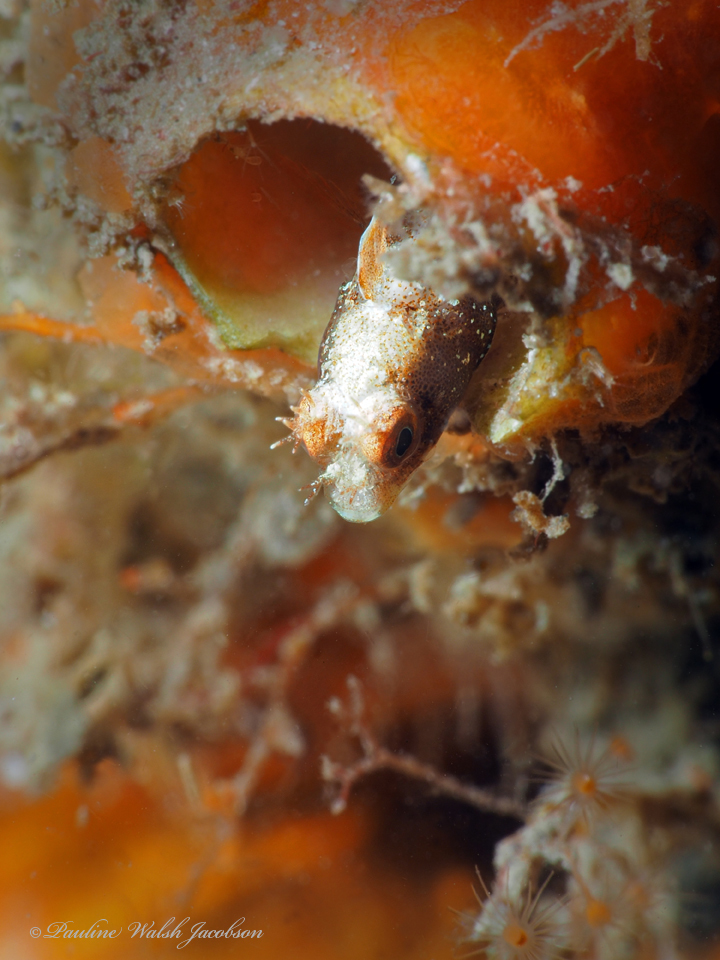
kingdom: Animalia
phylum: Chordata
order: Perciformes
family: Chaenopsidae
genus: Acanthemblemaria
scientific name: Acanthemblemaria aspera
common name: Roughhead blenny
